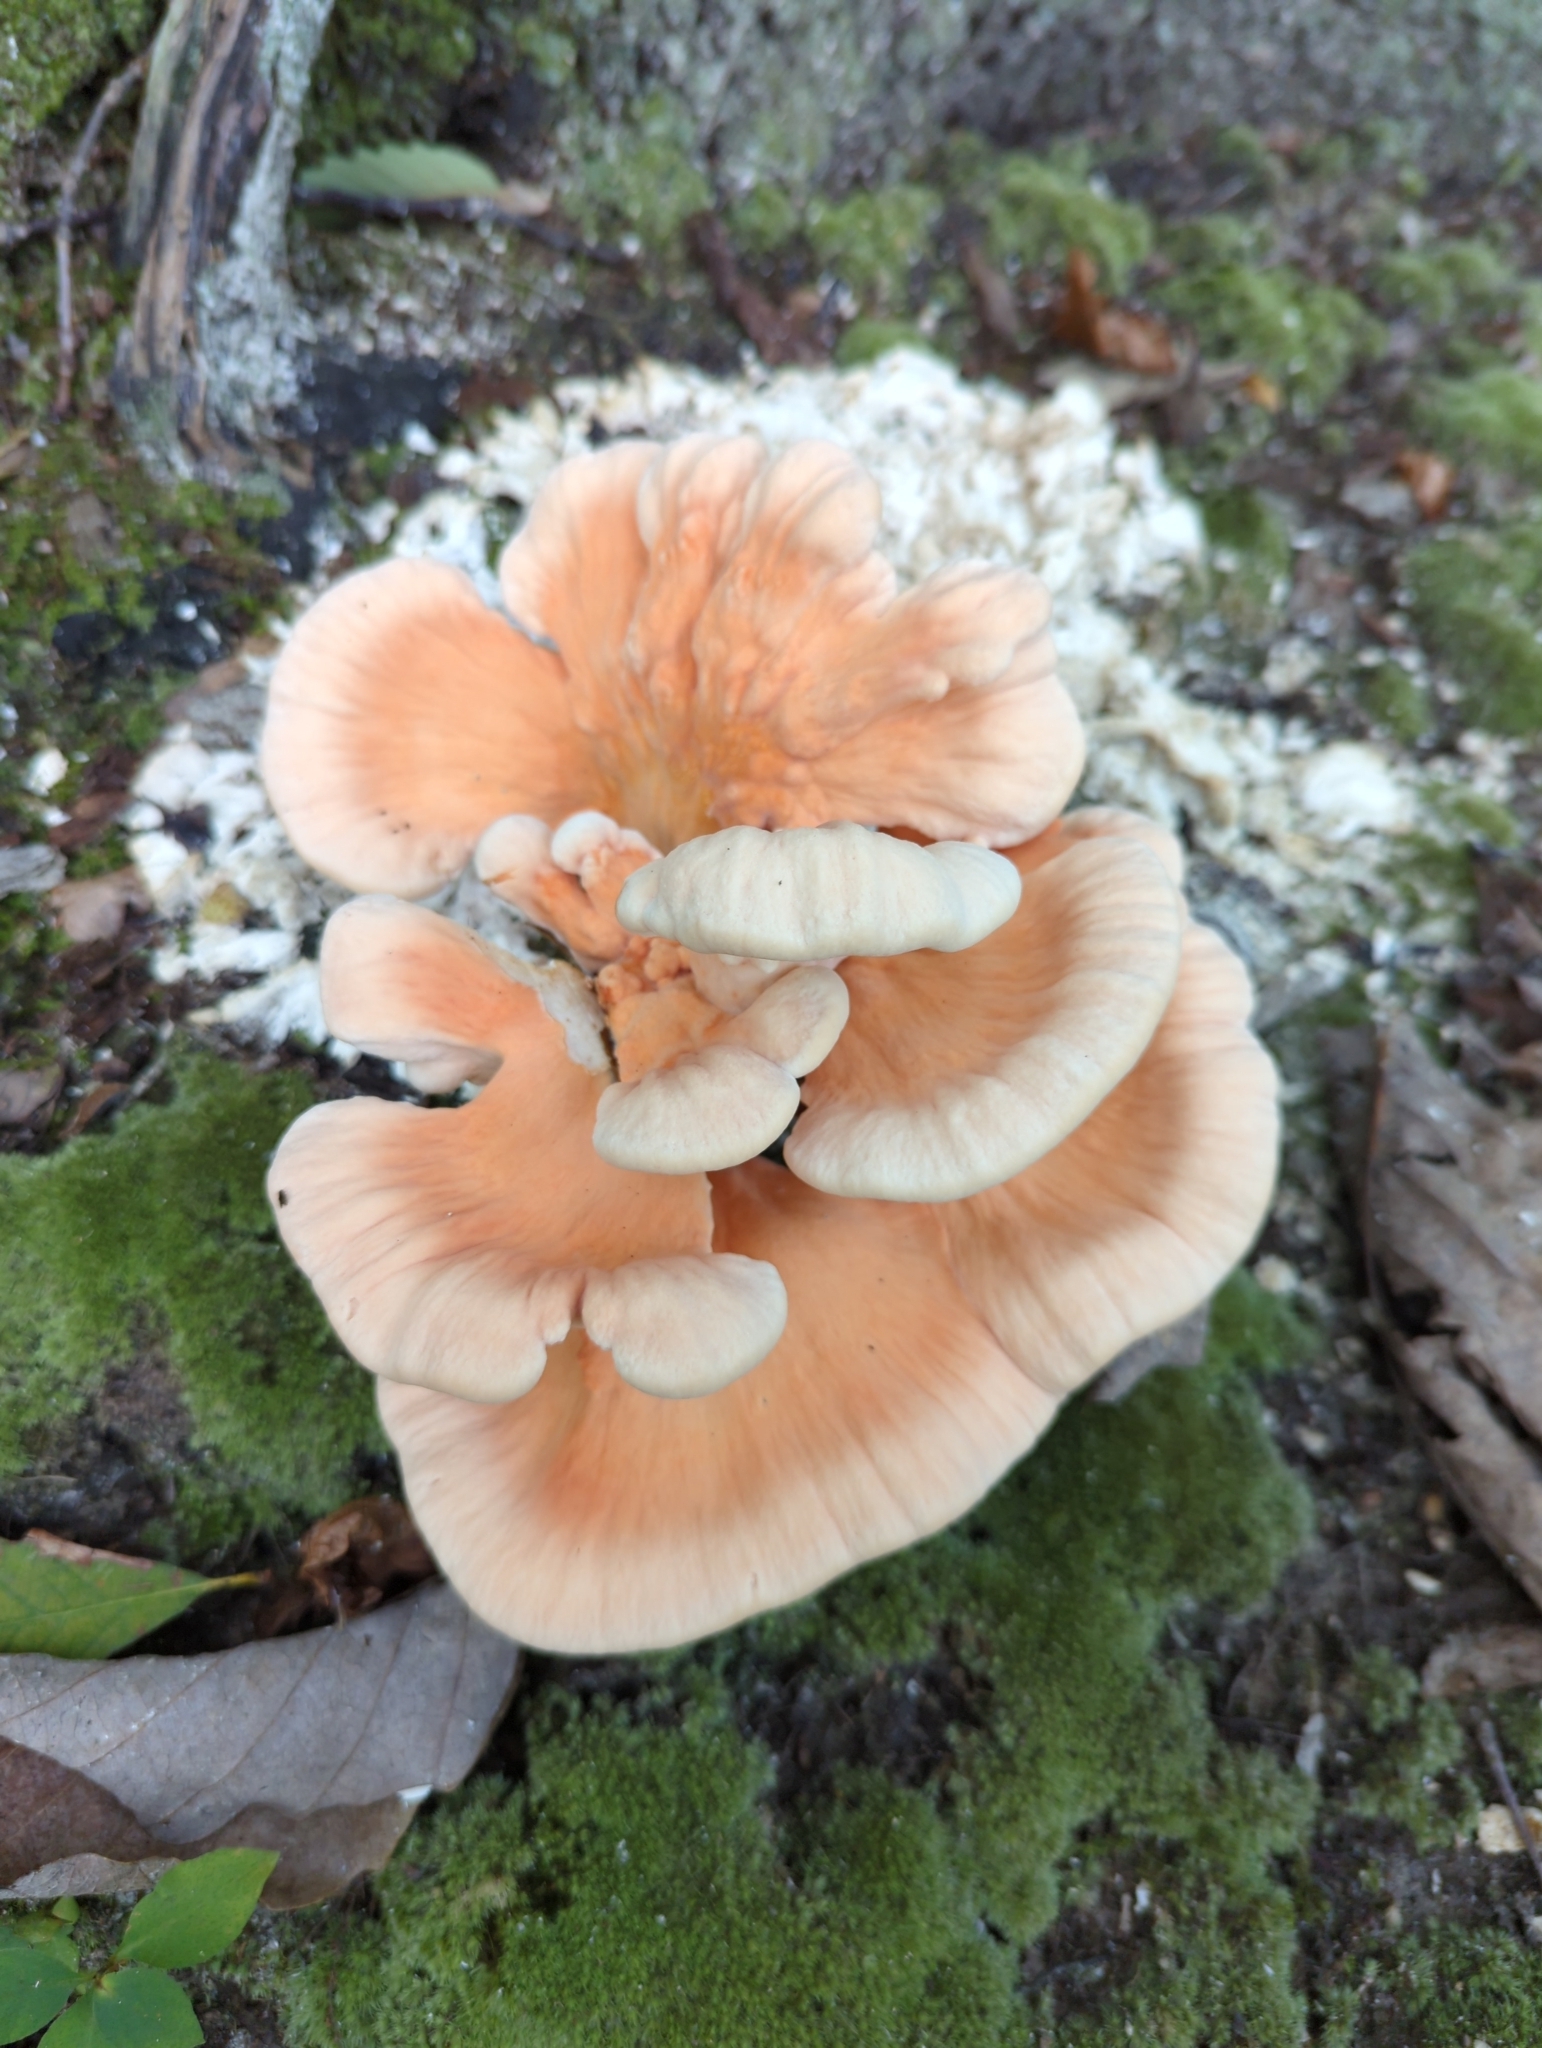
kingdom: Fungi
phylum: Basidiomycota
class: Agaricomycetes
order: Polyporales
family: Laetiporaceae
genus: Laetiporus
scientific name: Laetiporus sulphureus
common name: Chicken of the woods
